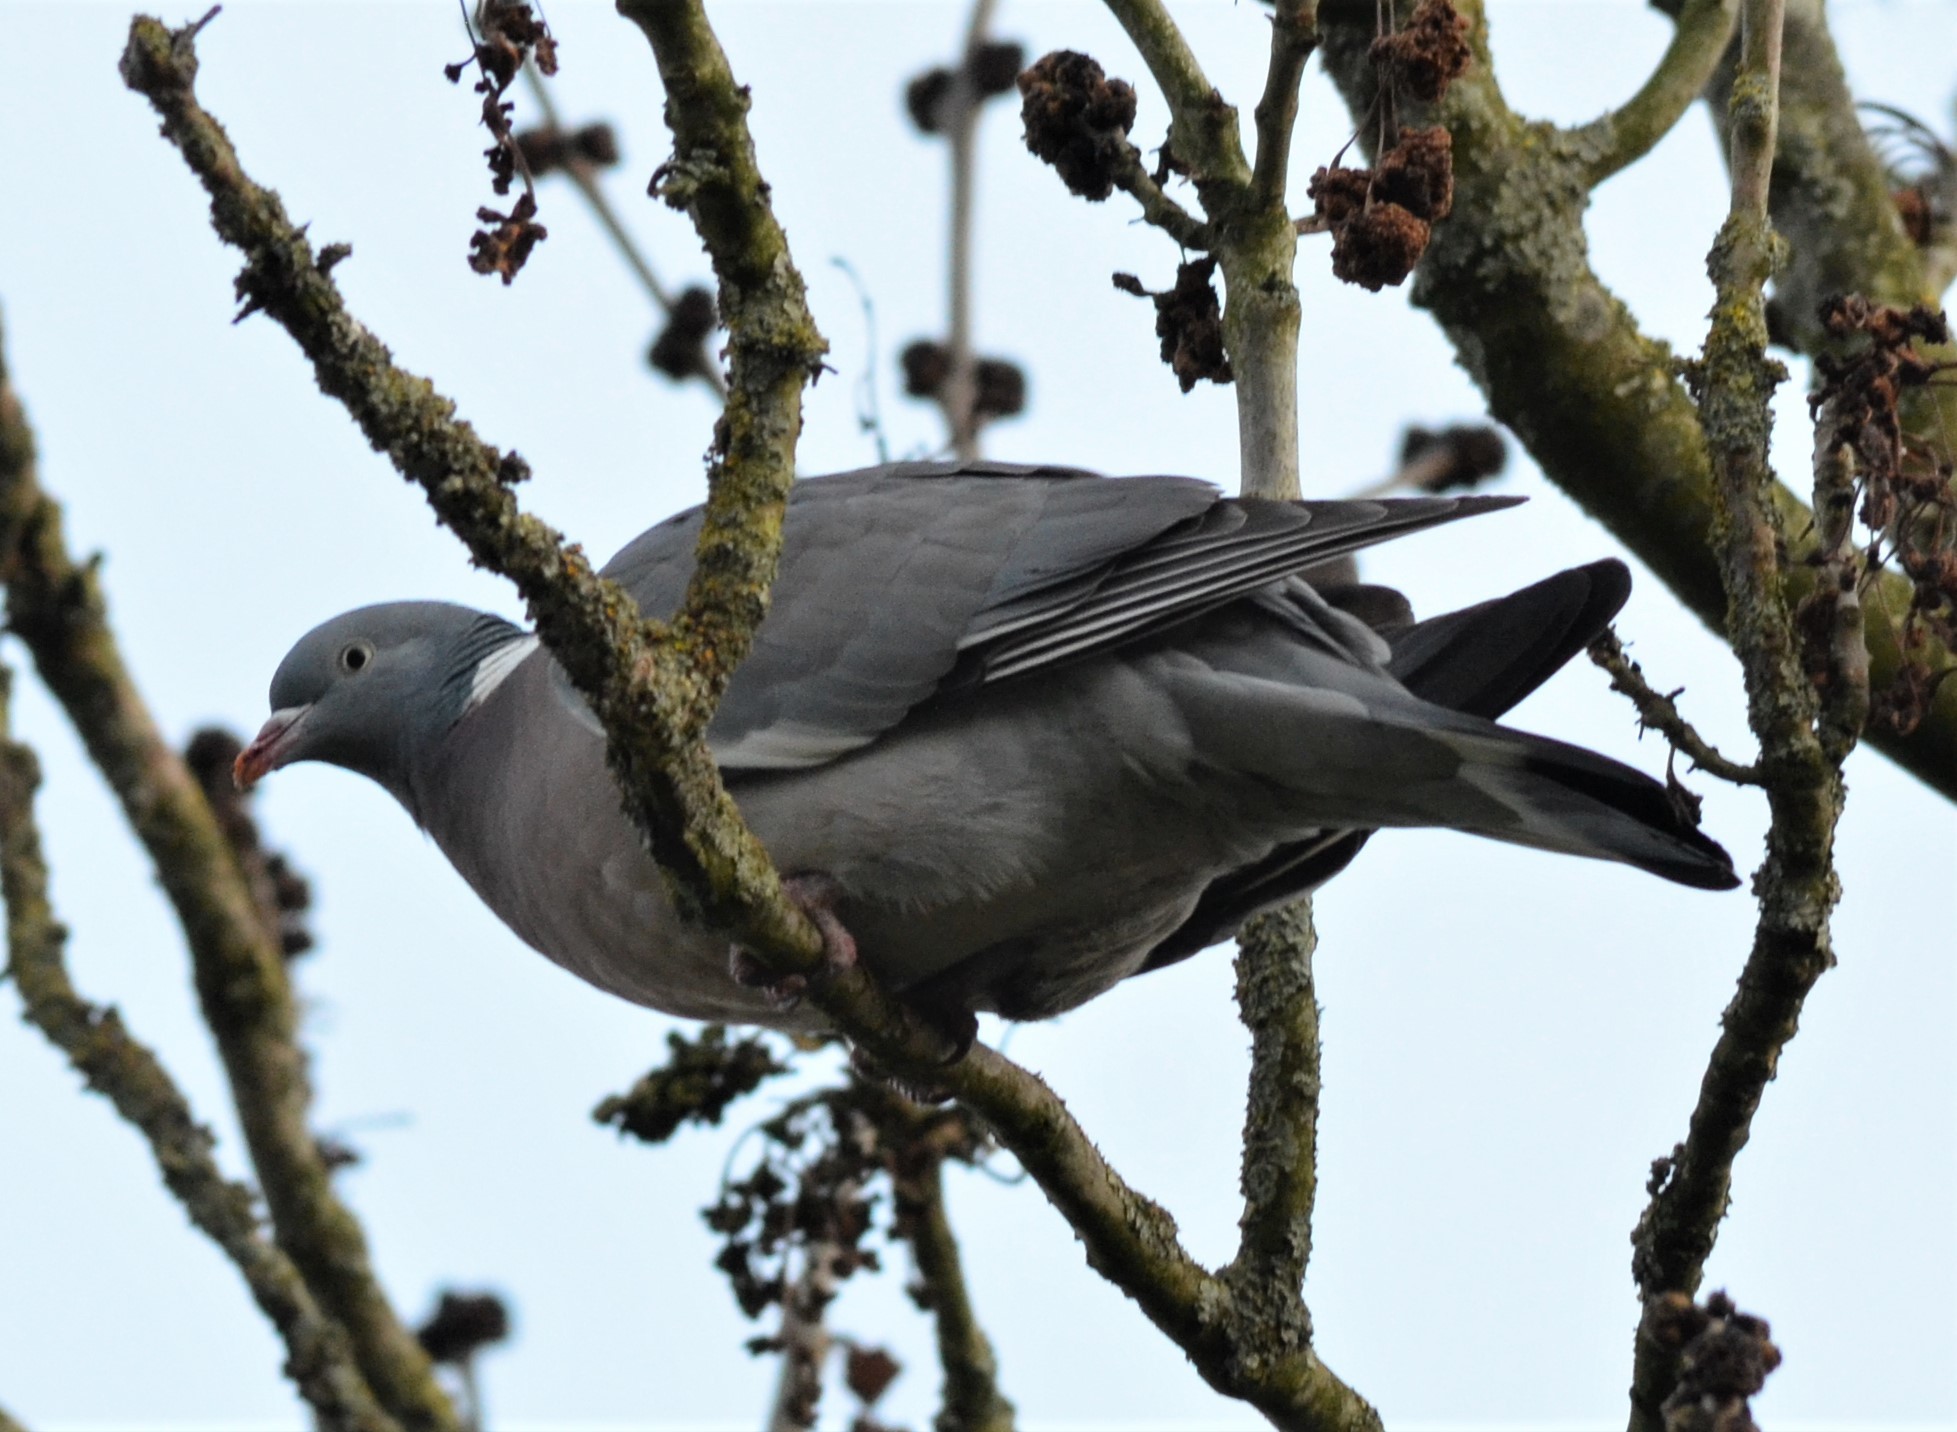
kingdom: Animalia
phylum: Chordata
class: Aves
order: Columbiformes
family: Columbidae
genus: Columba
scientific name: Columba palumbus
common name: Common wood pigeon
